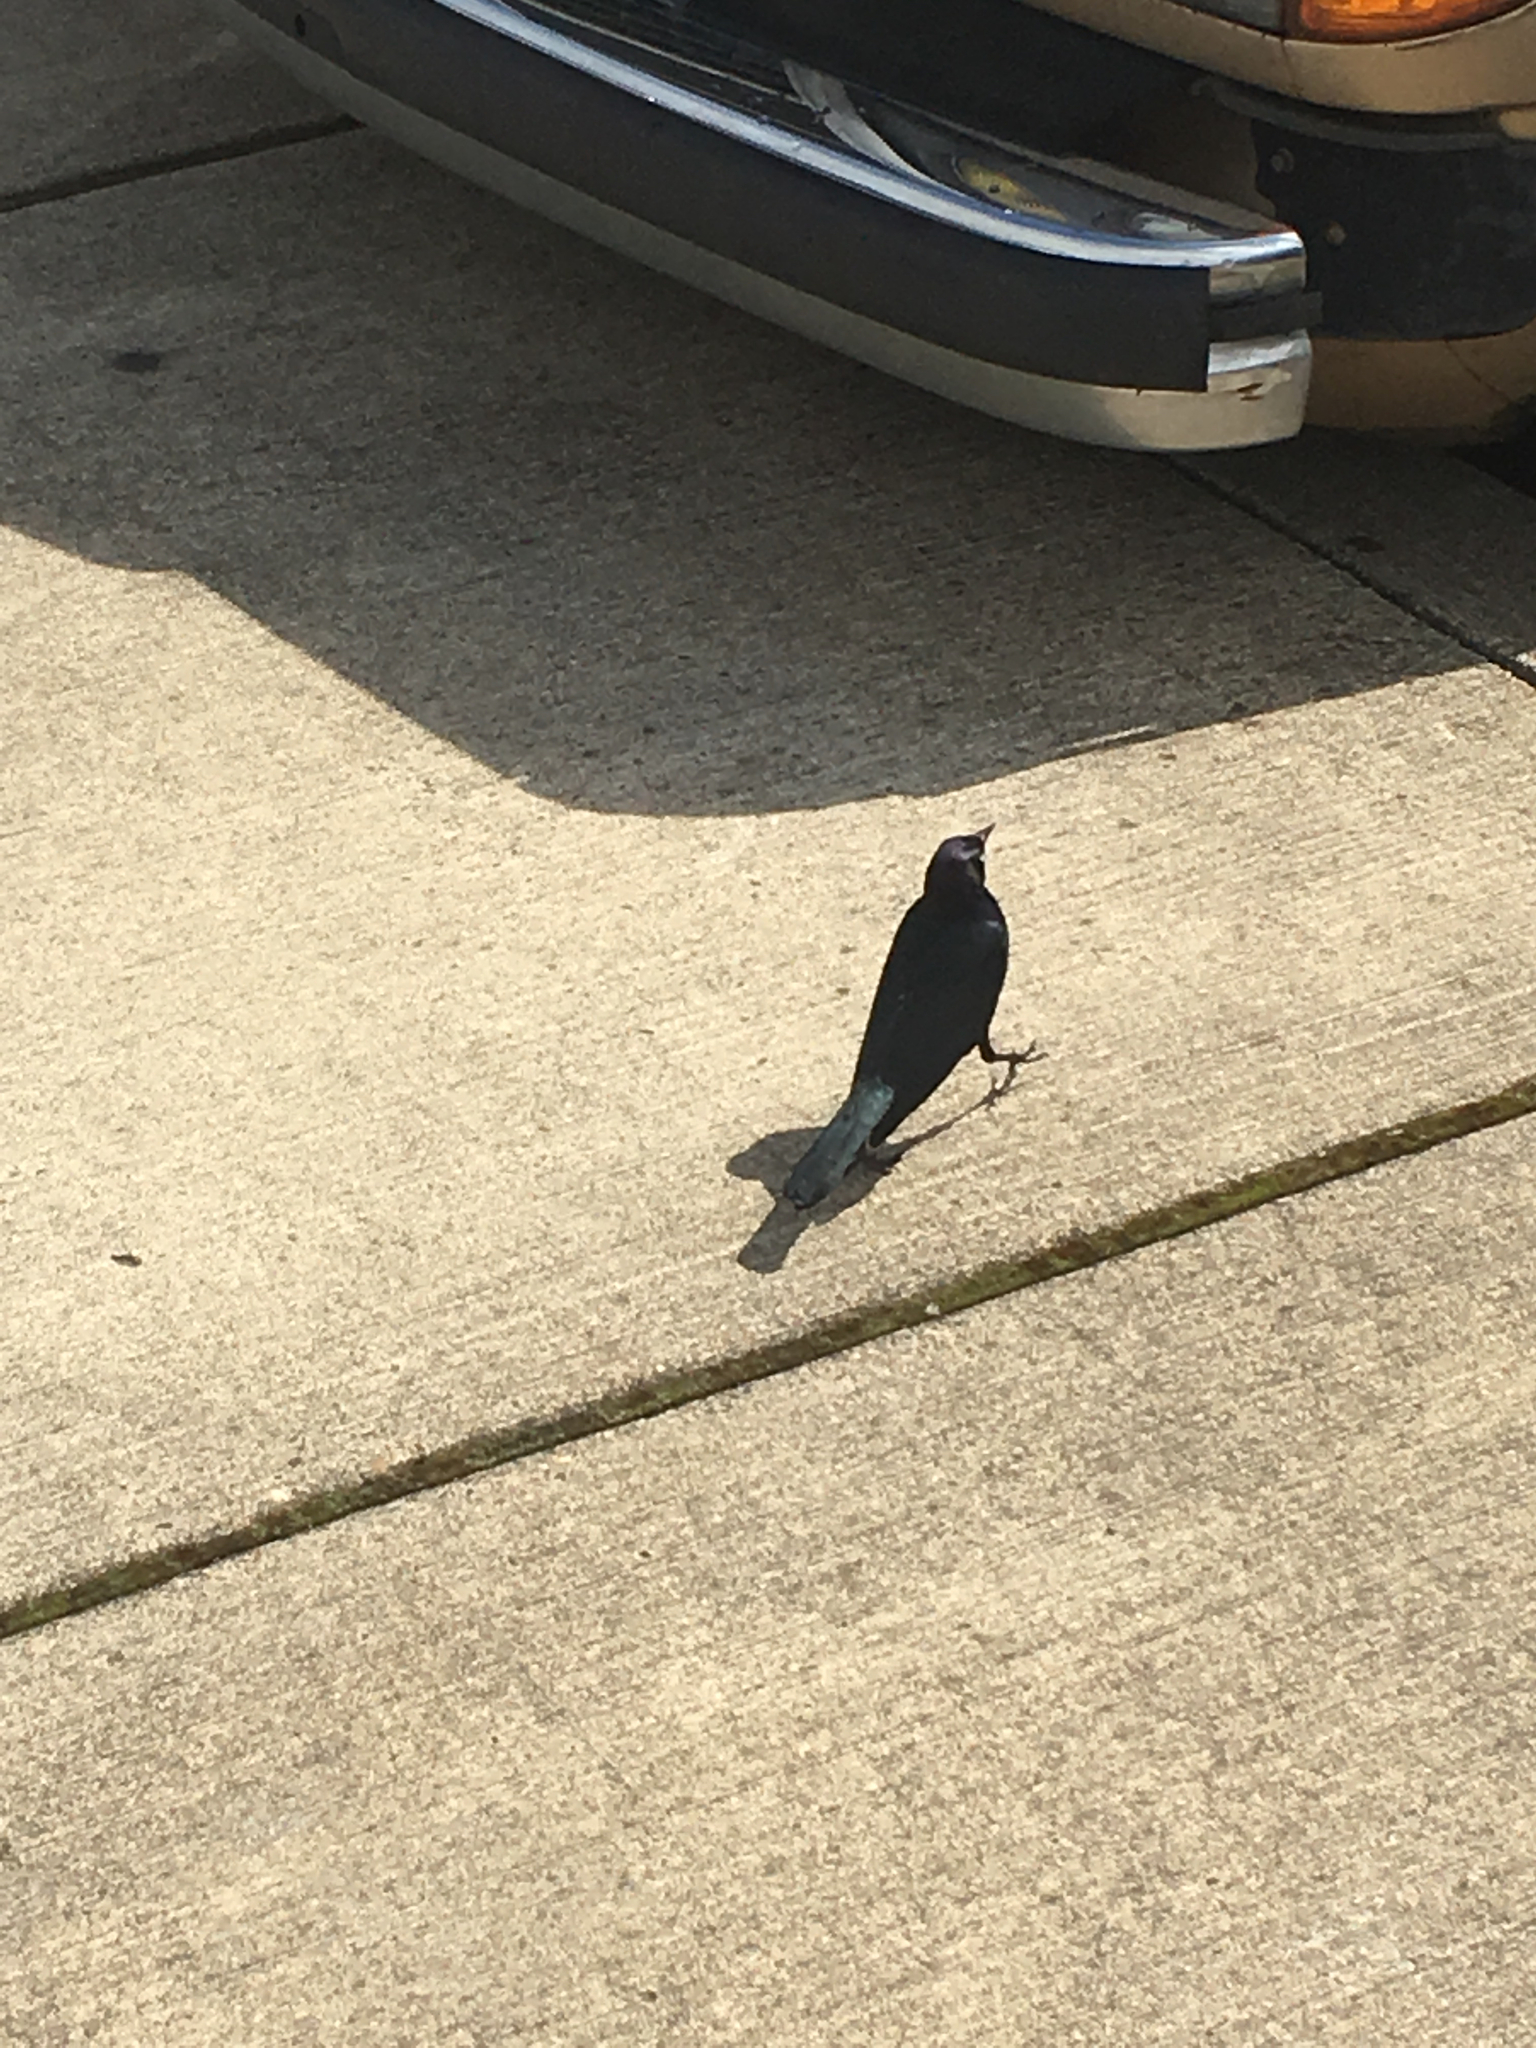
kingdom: Animalia
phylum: Chordata
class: Aves
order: Passeriformes
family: Icteridae
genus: Euphagus
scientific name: Euphagus cyanocephalus
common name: Brewer's blackbird
